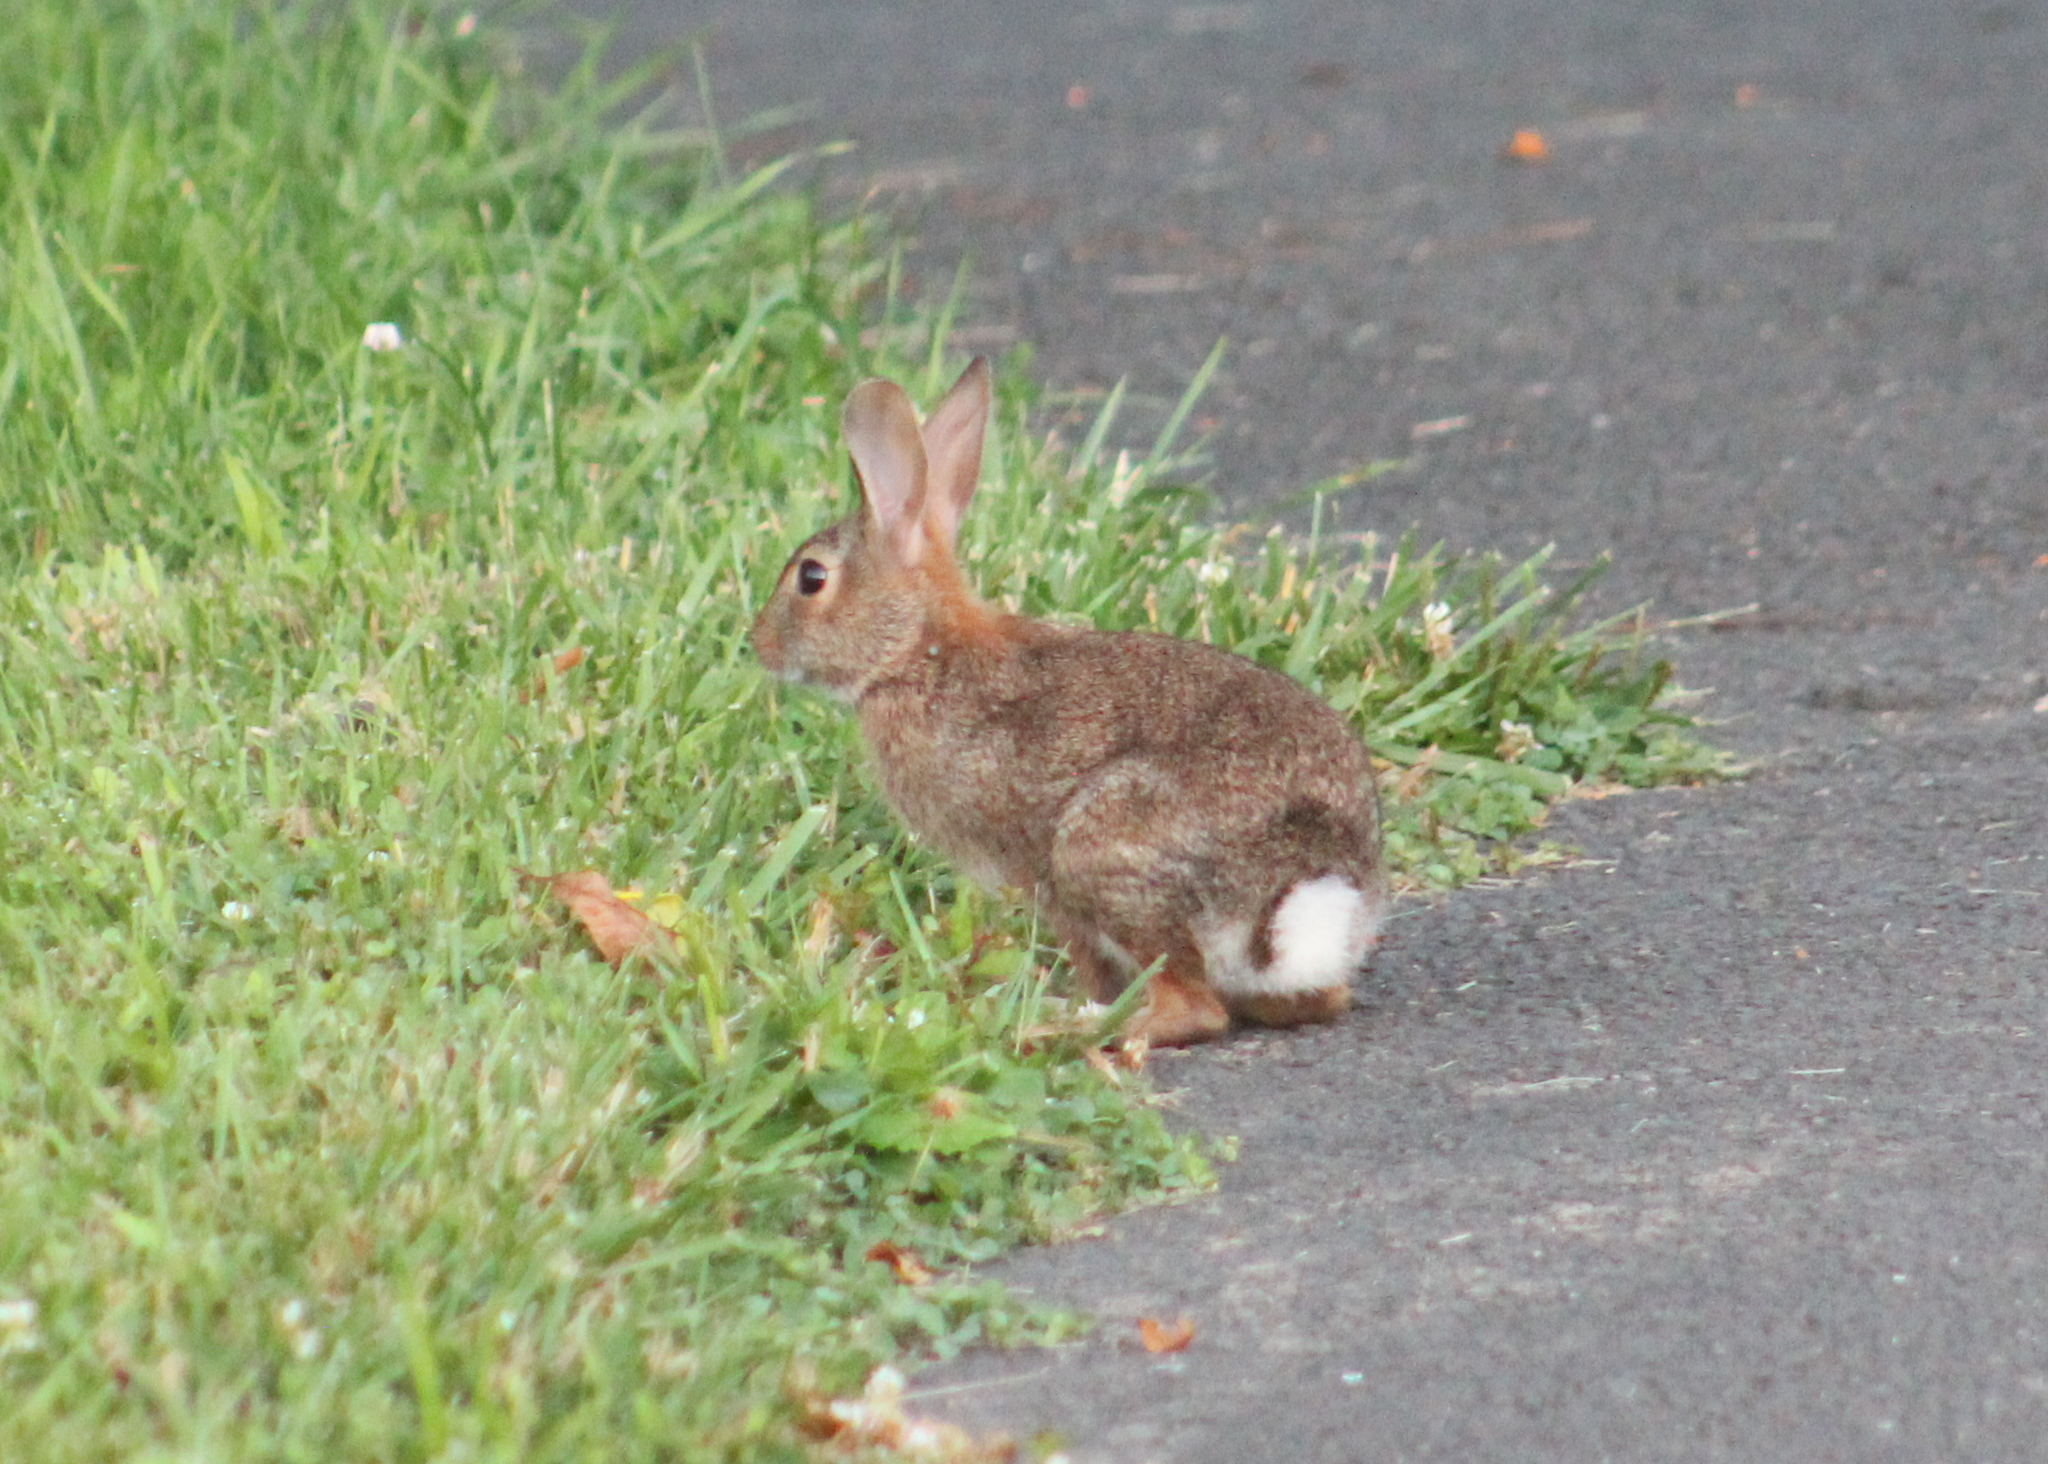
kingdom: Animalia
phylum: Chordata
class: Mammalia
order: Lagomorpha
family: Leporidae
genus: Sylvilagus
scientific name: Sylvilagus floridanus
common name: Eastern cottontail
